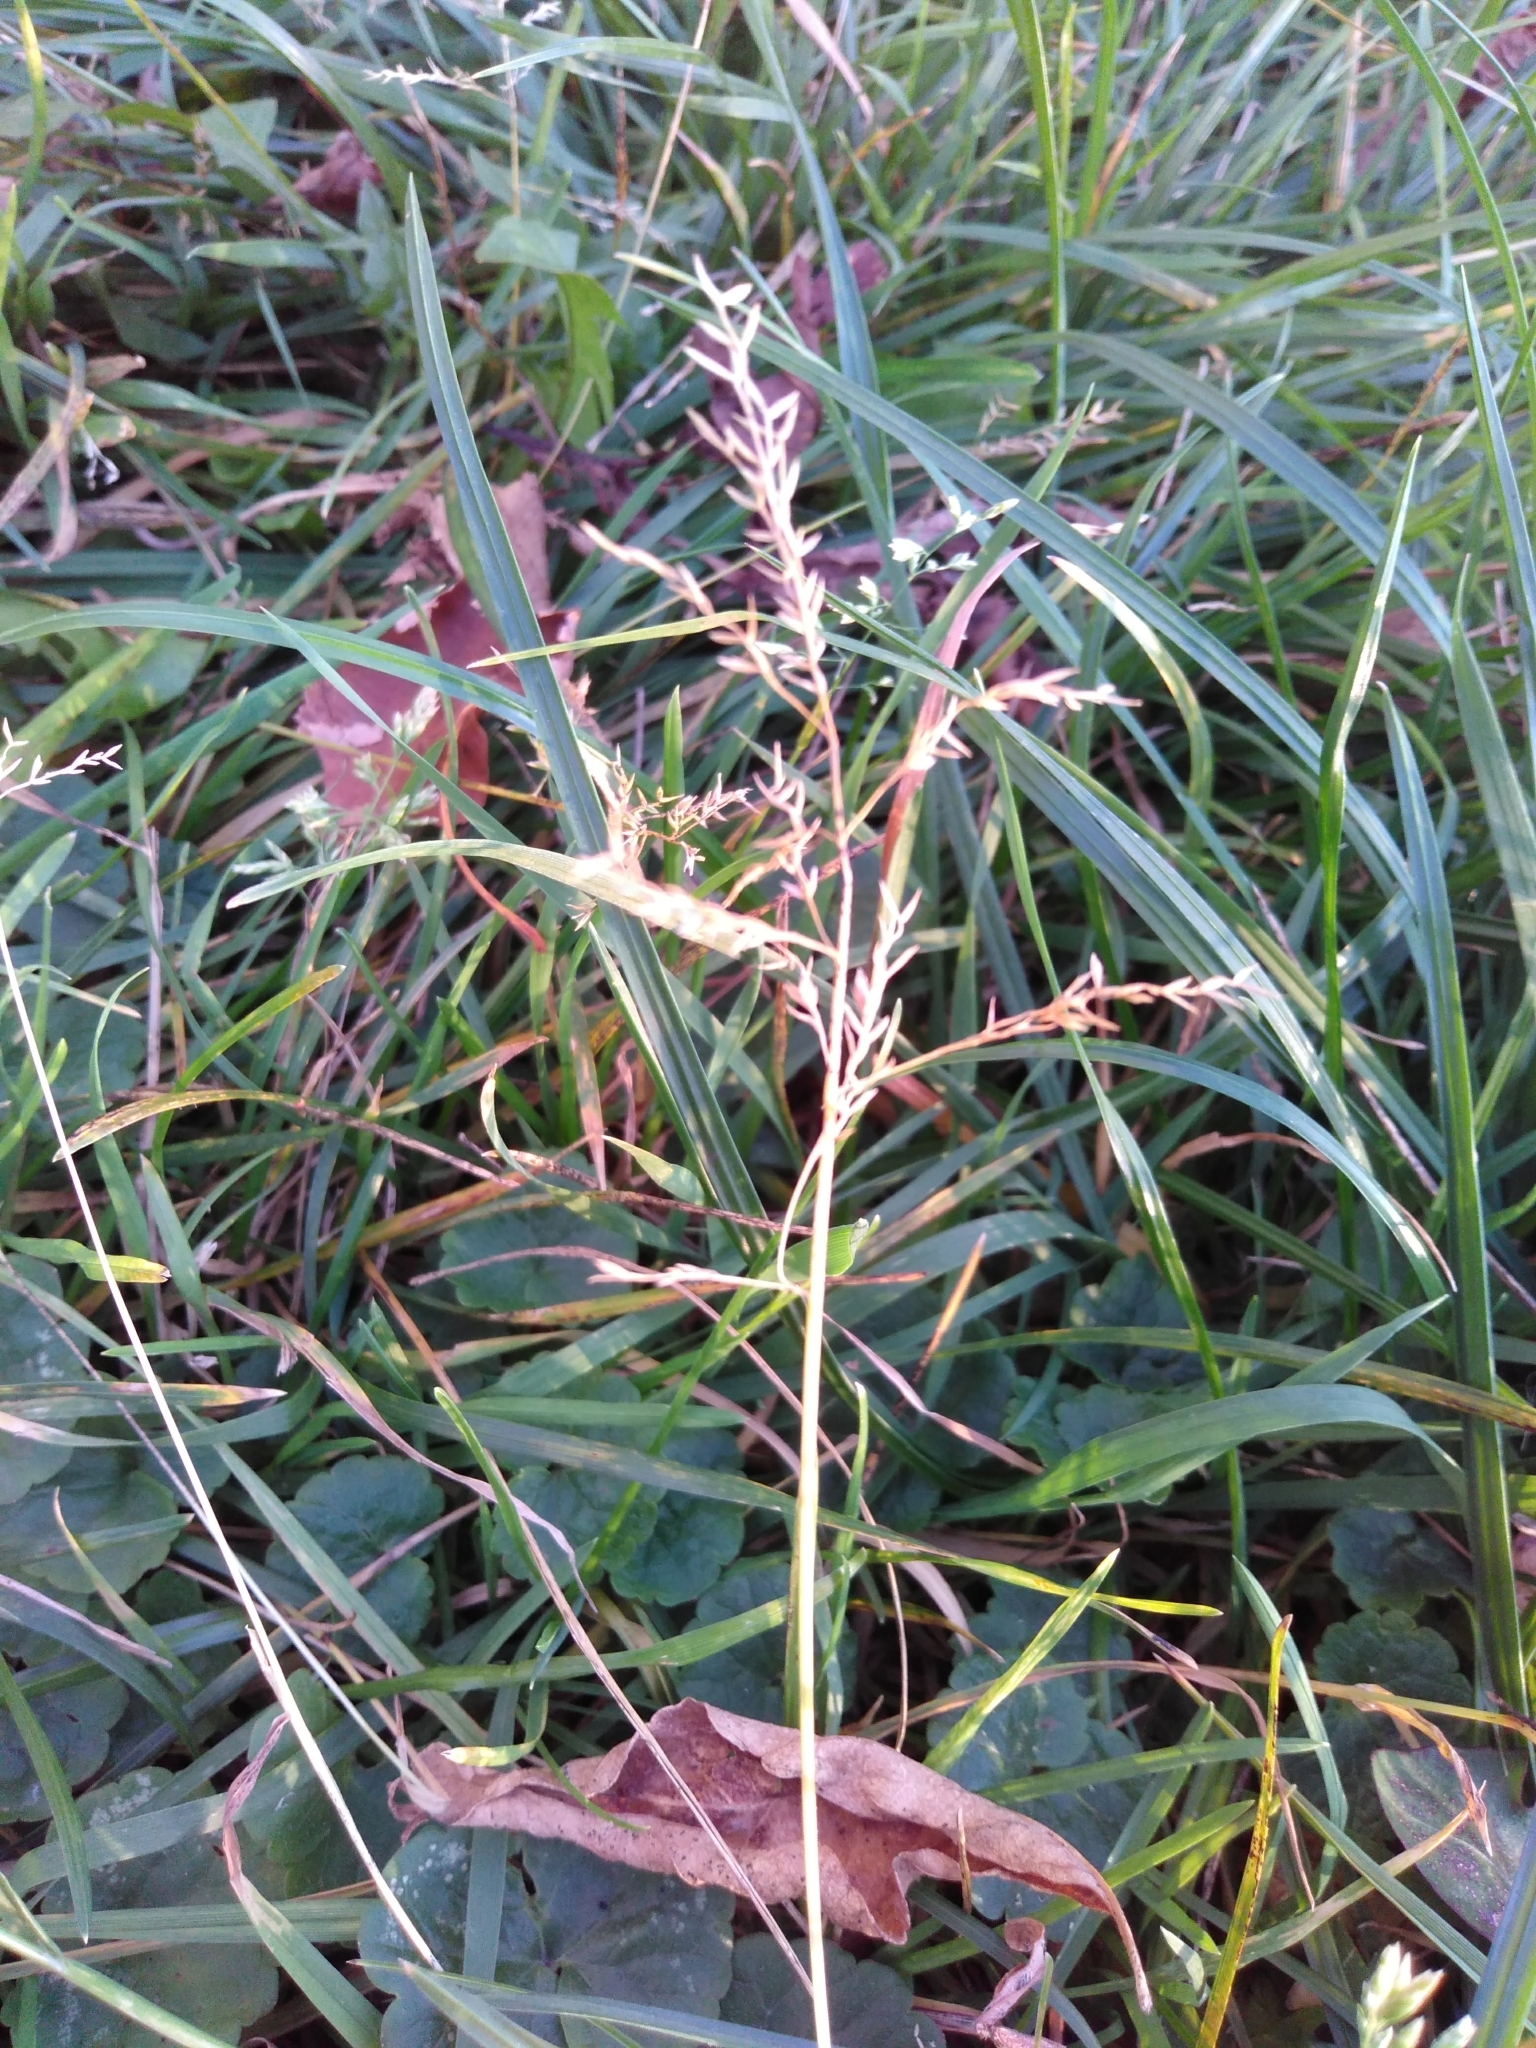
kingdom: Plantae
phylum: Tracheophyta
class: Liliopsida
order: Poales
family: Poaceae
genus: Poa
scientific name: Poa annua
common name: Annual bluegrass
